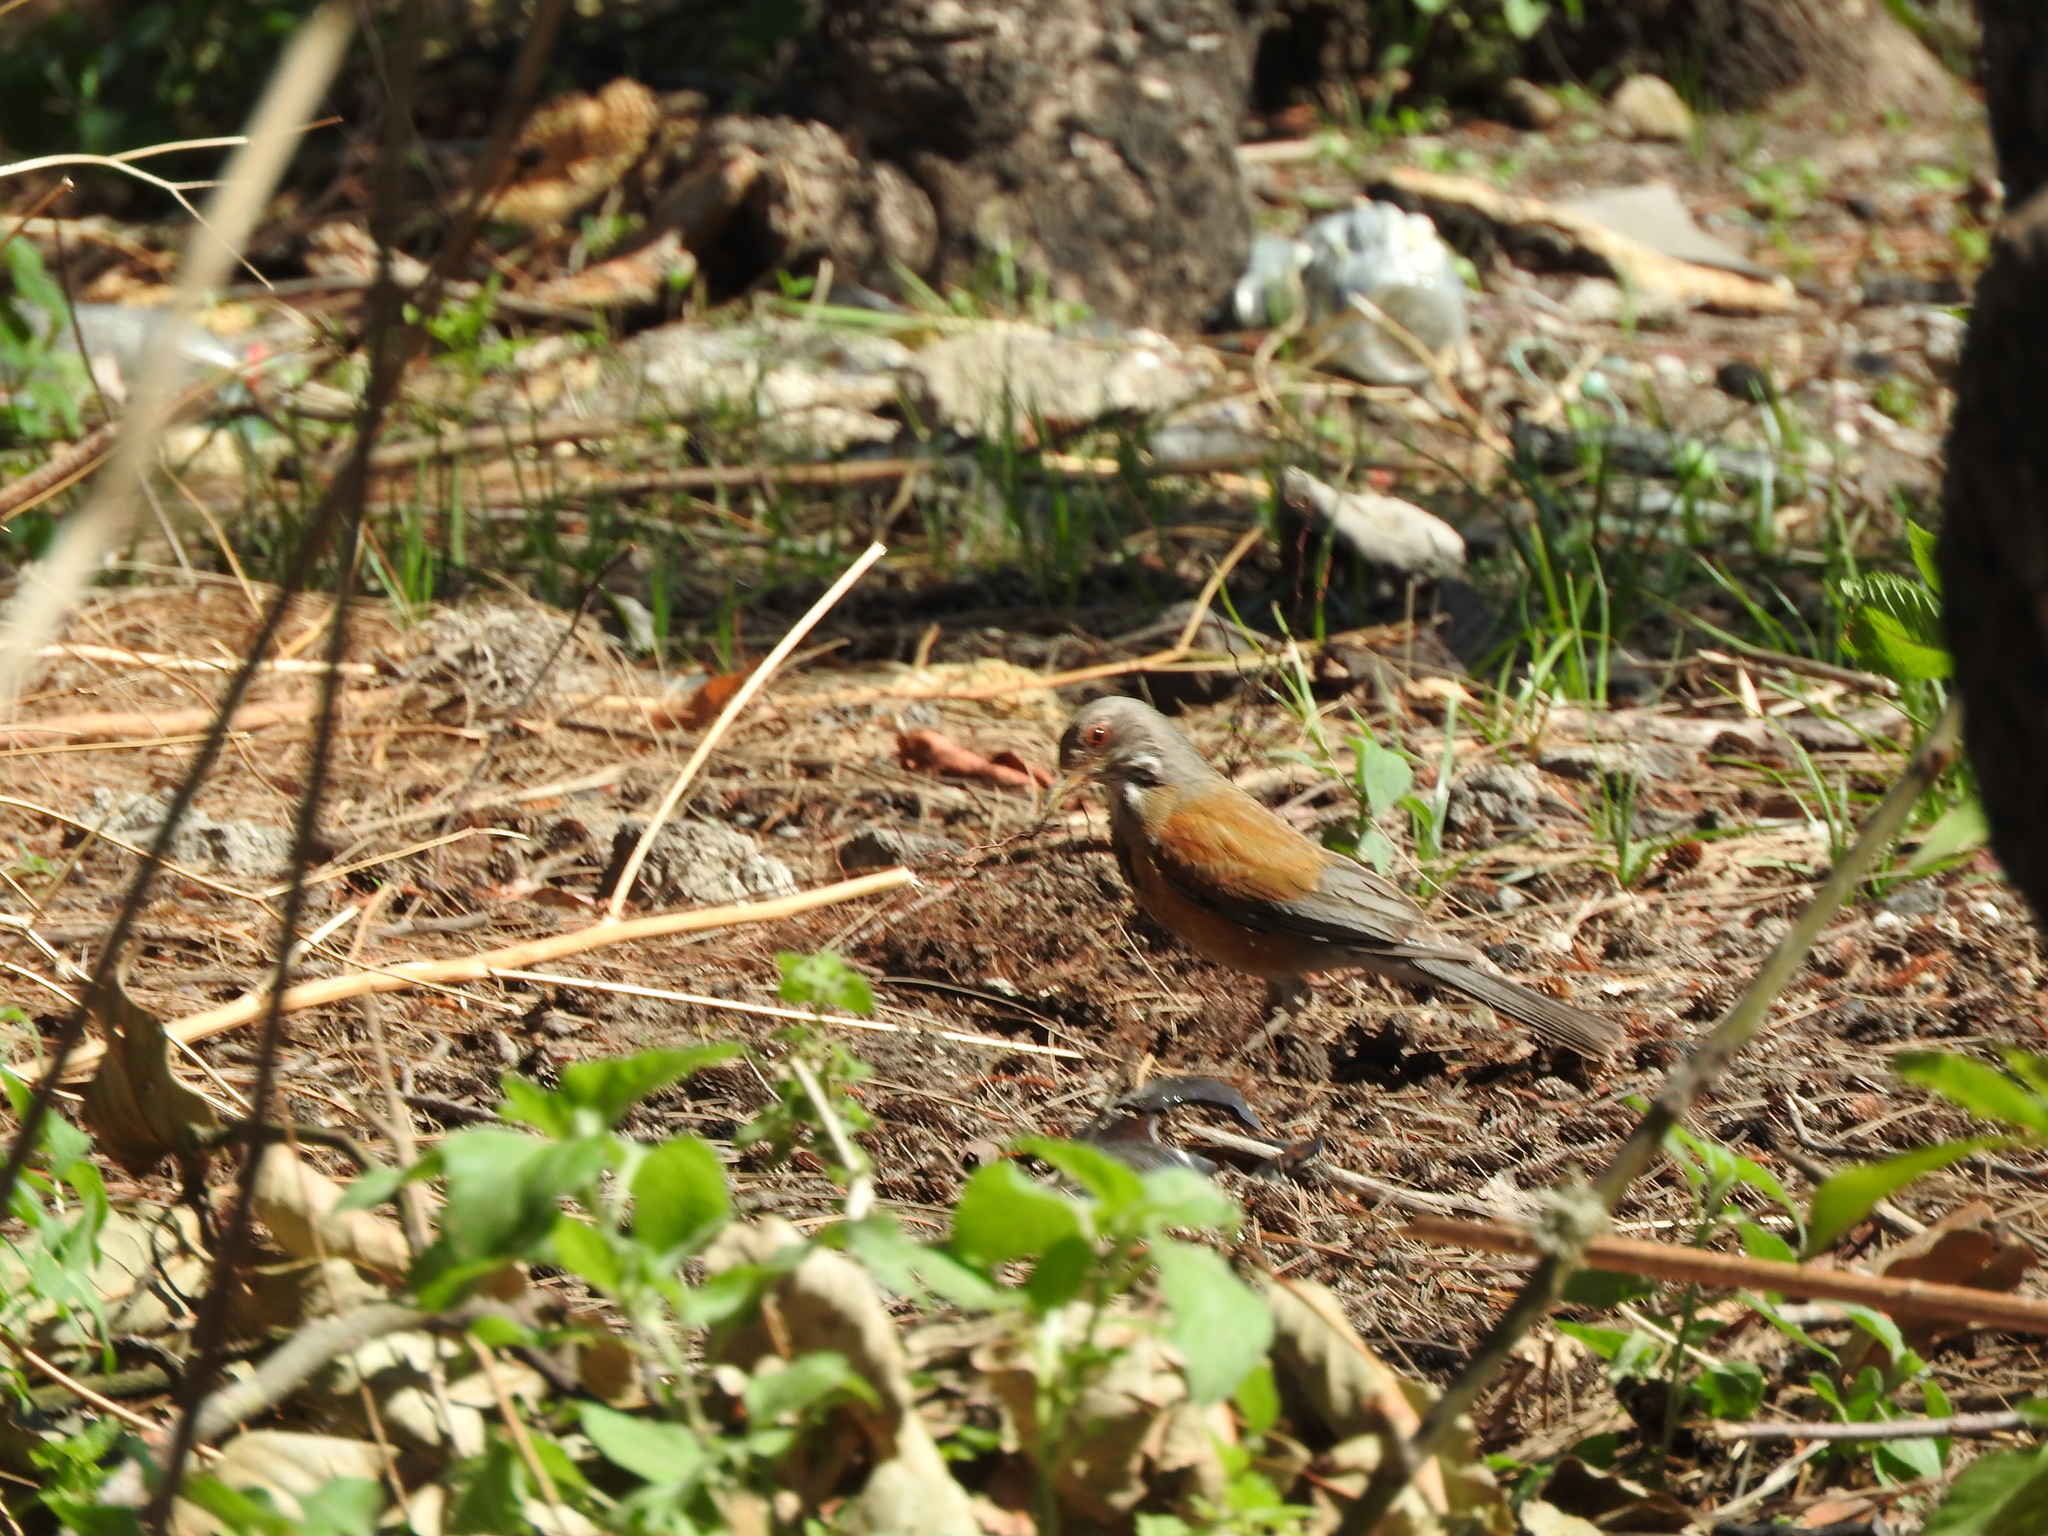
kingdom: Animalia
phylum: Chordata
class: Aves
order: Passeriformes
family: Turdidae
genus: Turdus
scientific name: Turdus rufopalliatus
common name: Rufous-backed robin
